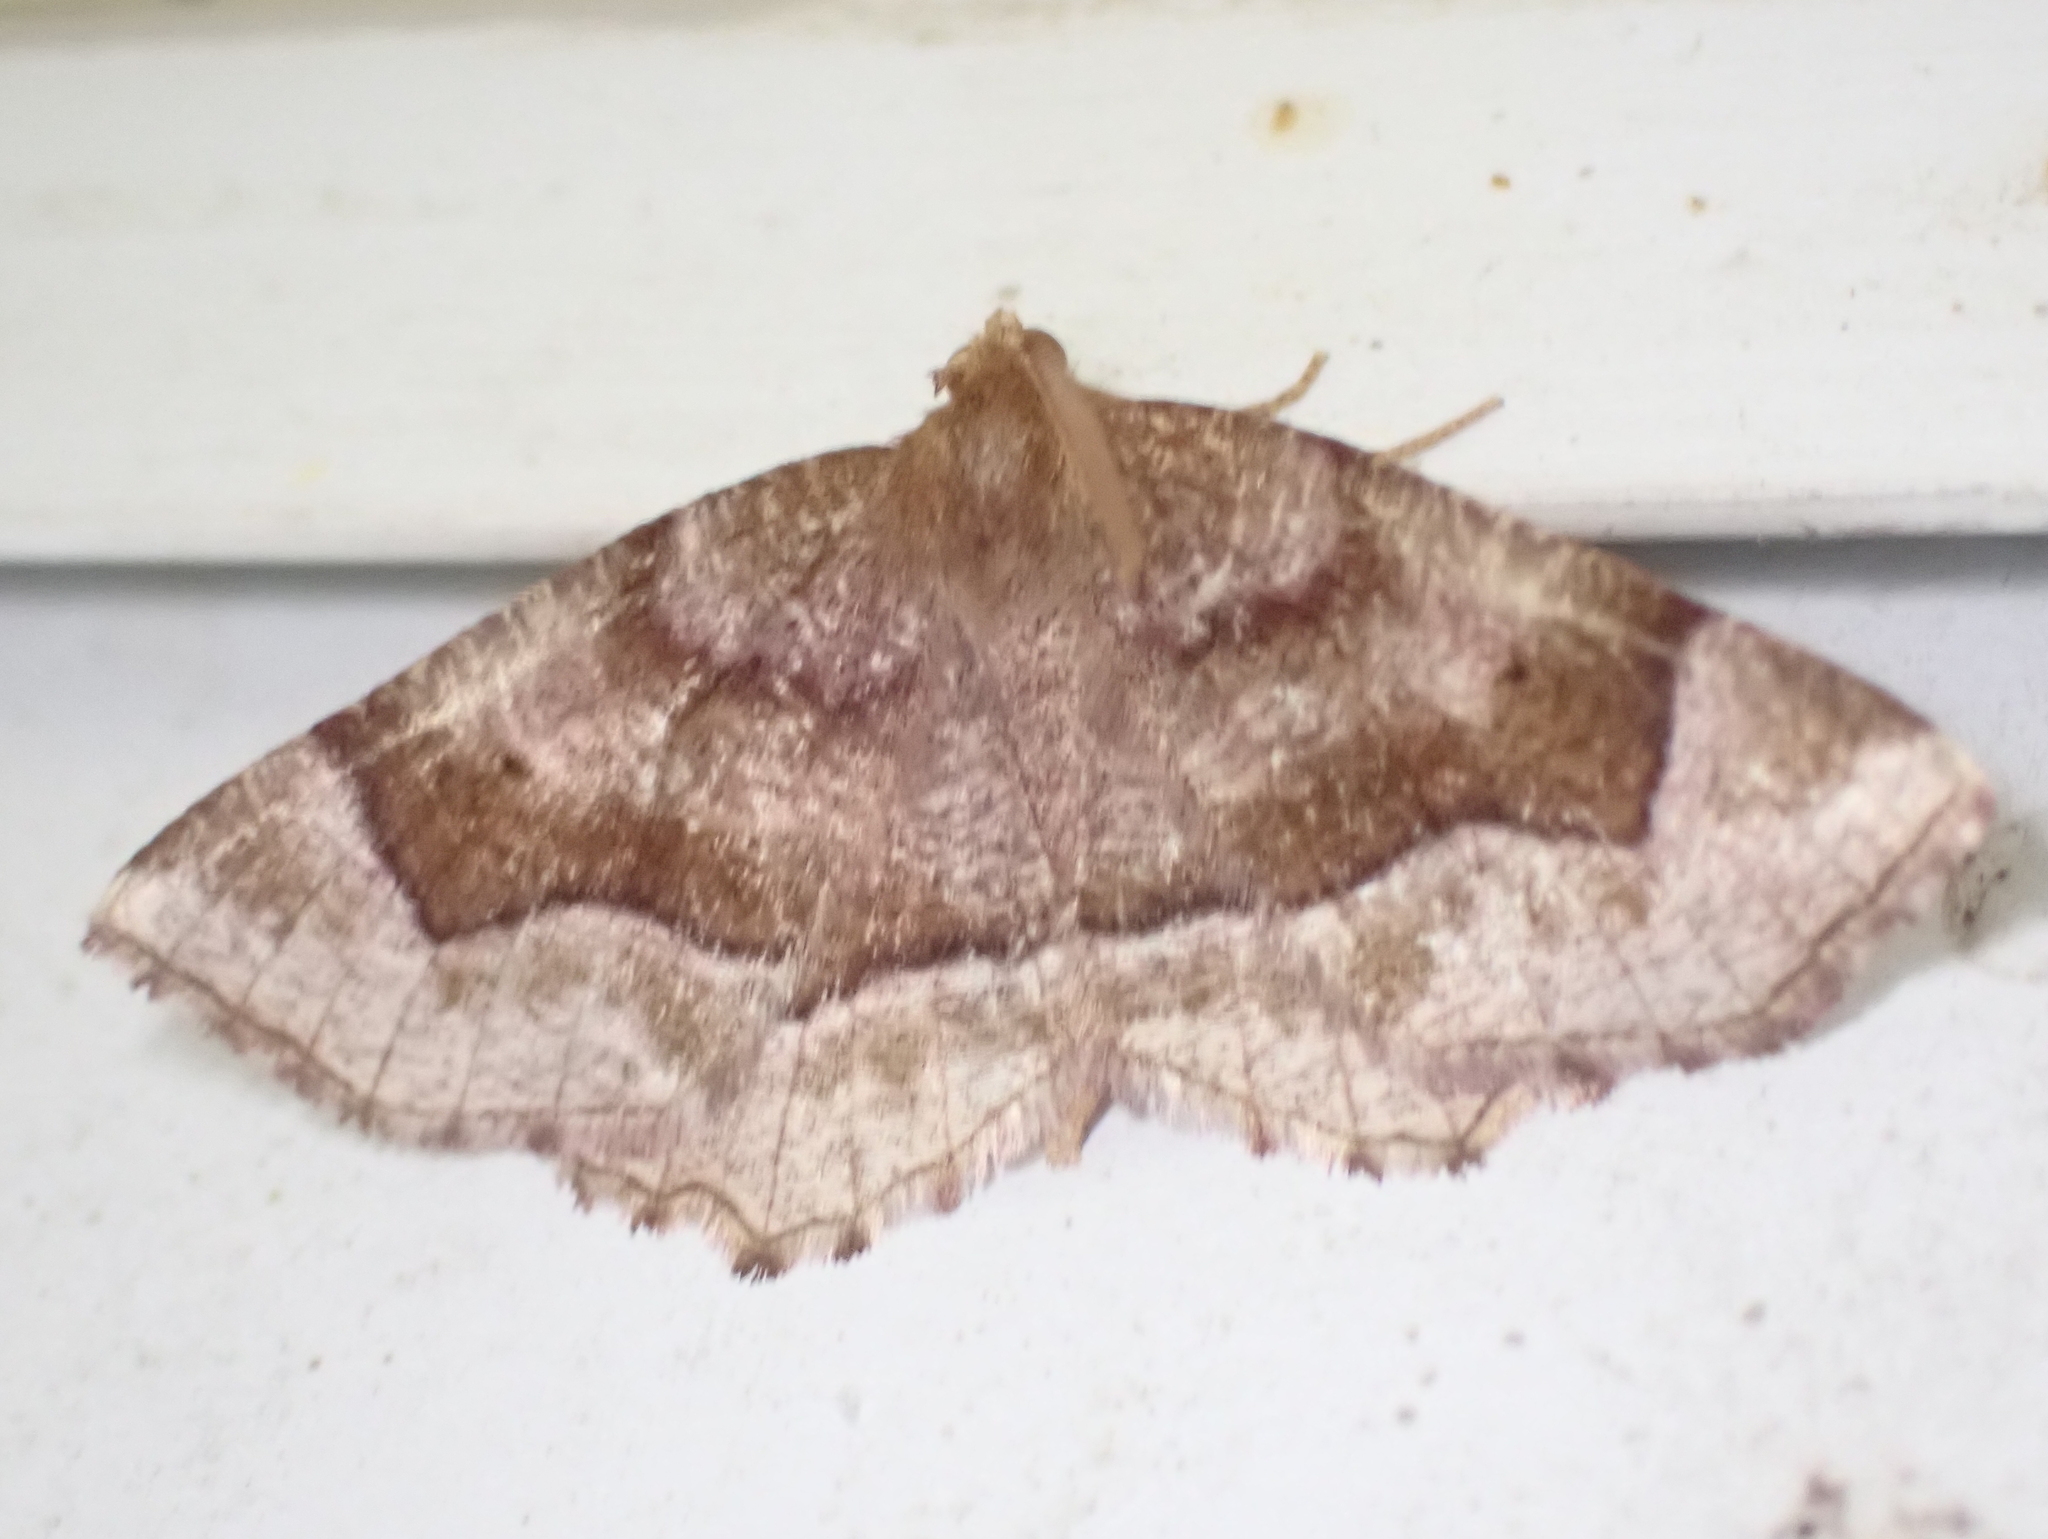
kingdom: Animalia
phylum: Arthropoda
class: Insecta
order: Lepidoptera
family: Geometridae
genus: Metarranthis
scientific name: Metarranthis refractaria
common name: Refracted metarranthis moth
